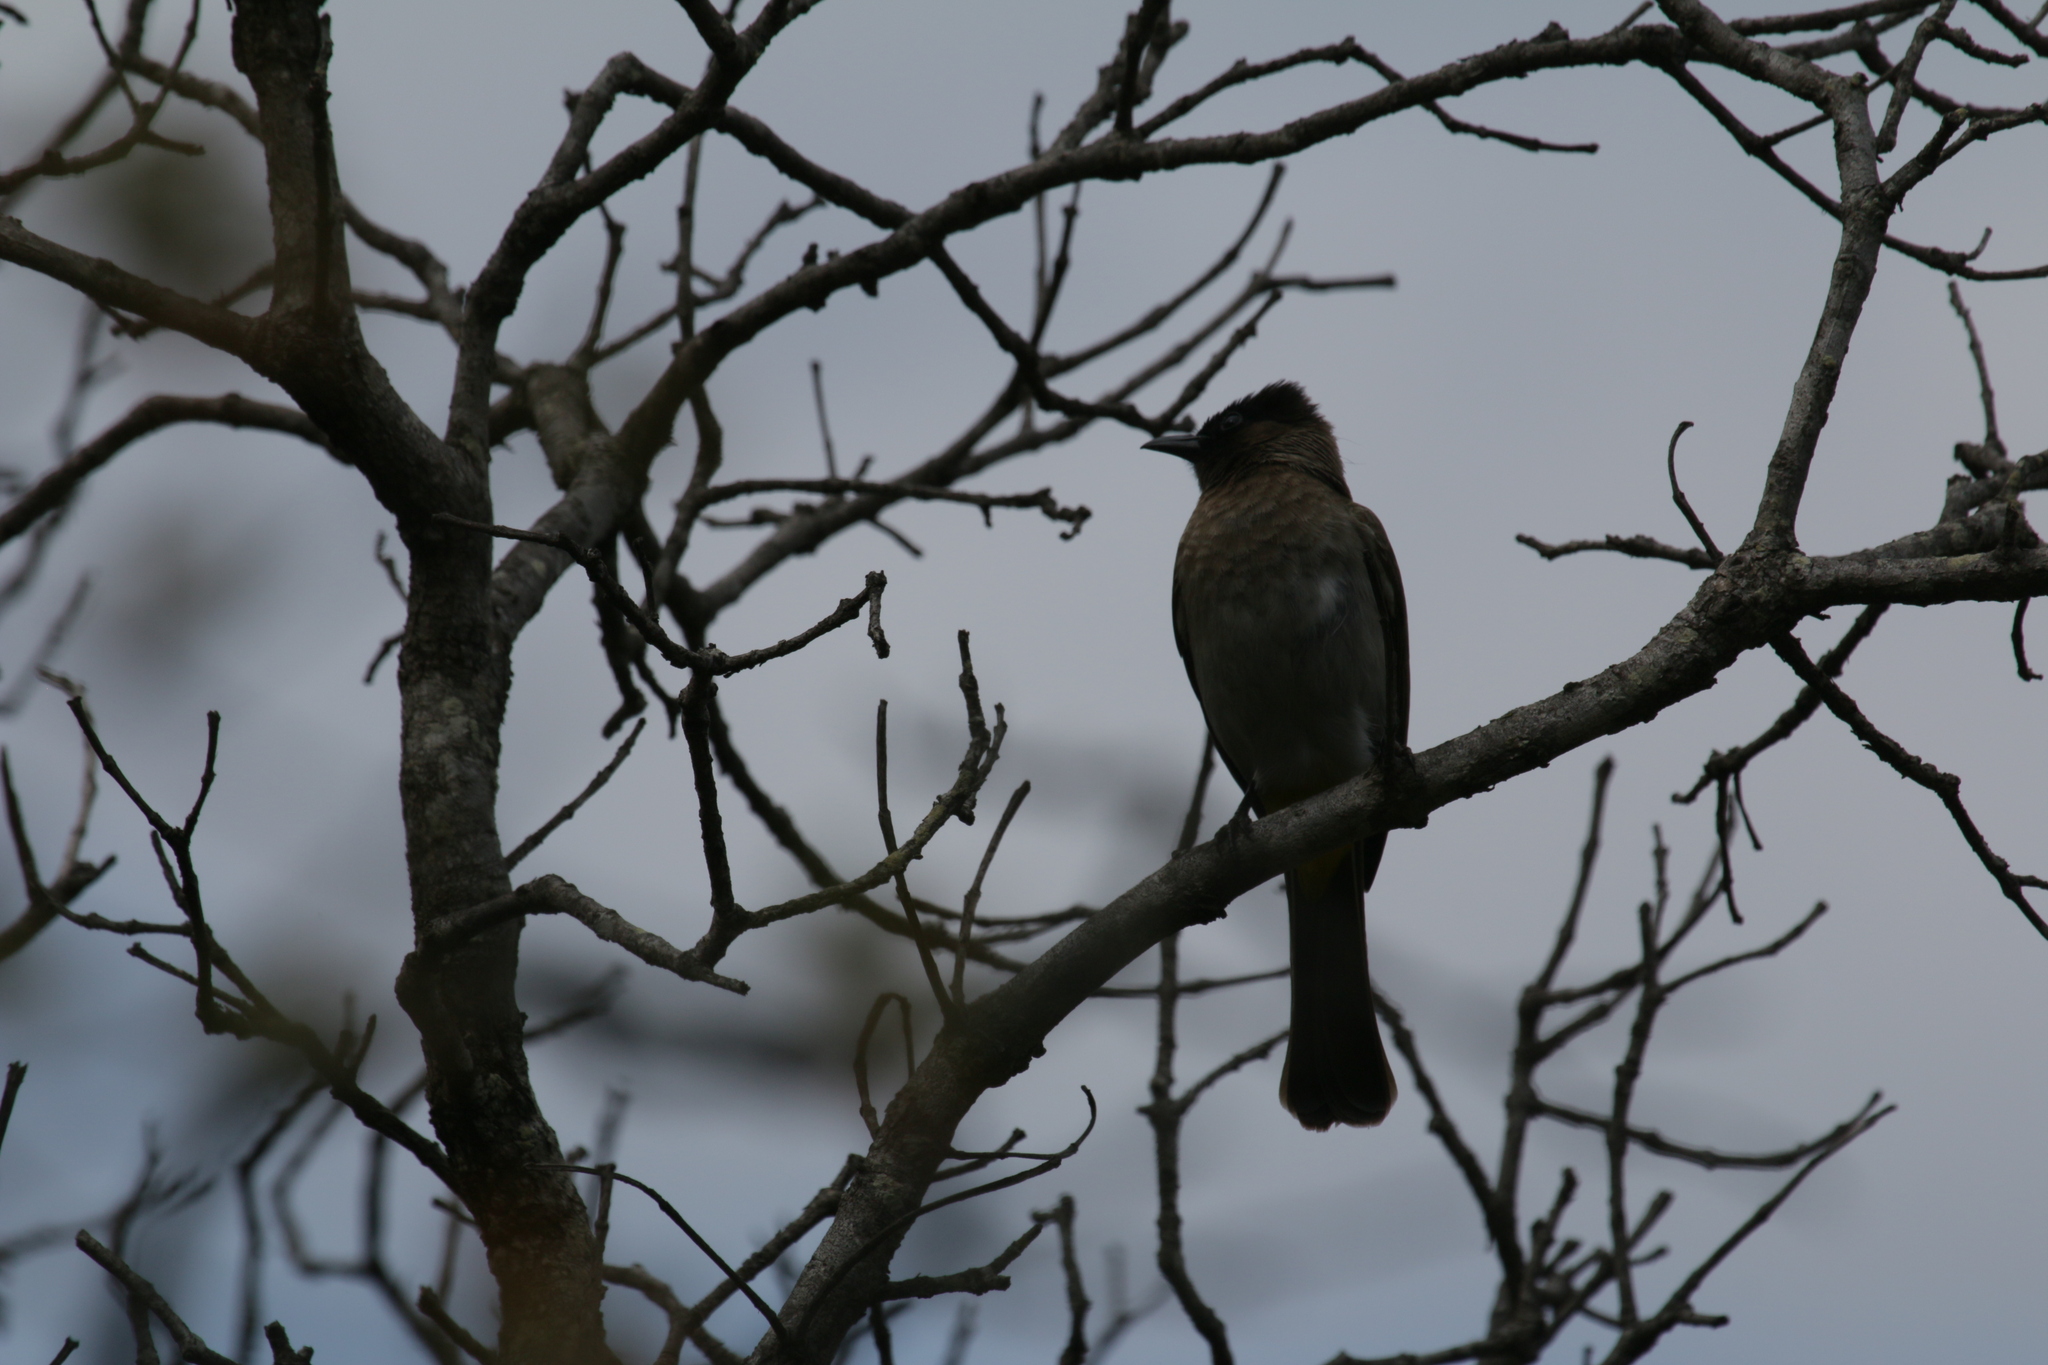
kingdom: Animalia
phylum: Chordata
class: Aves
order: Passeriformes
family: Pycnonotidae
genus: Pycnonotus
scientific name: Pycnonotus barbatus
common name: Common bulbul
